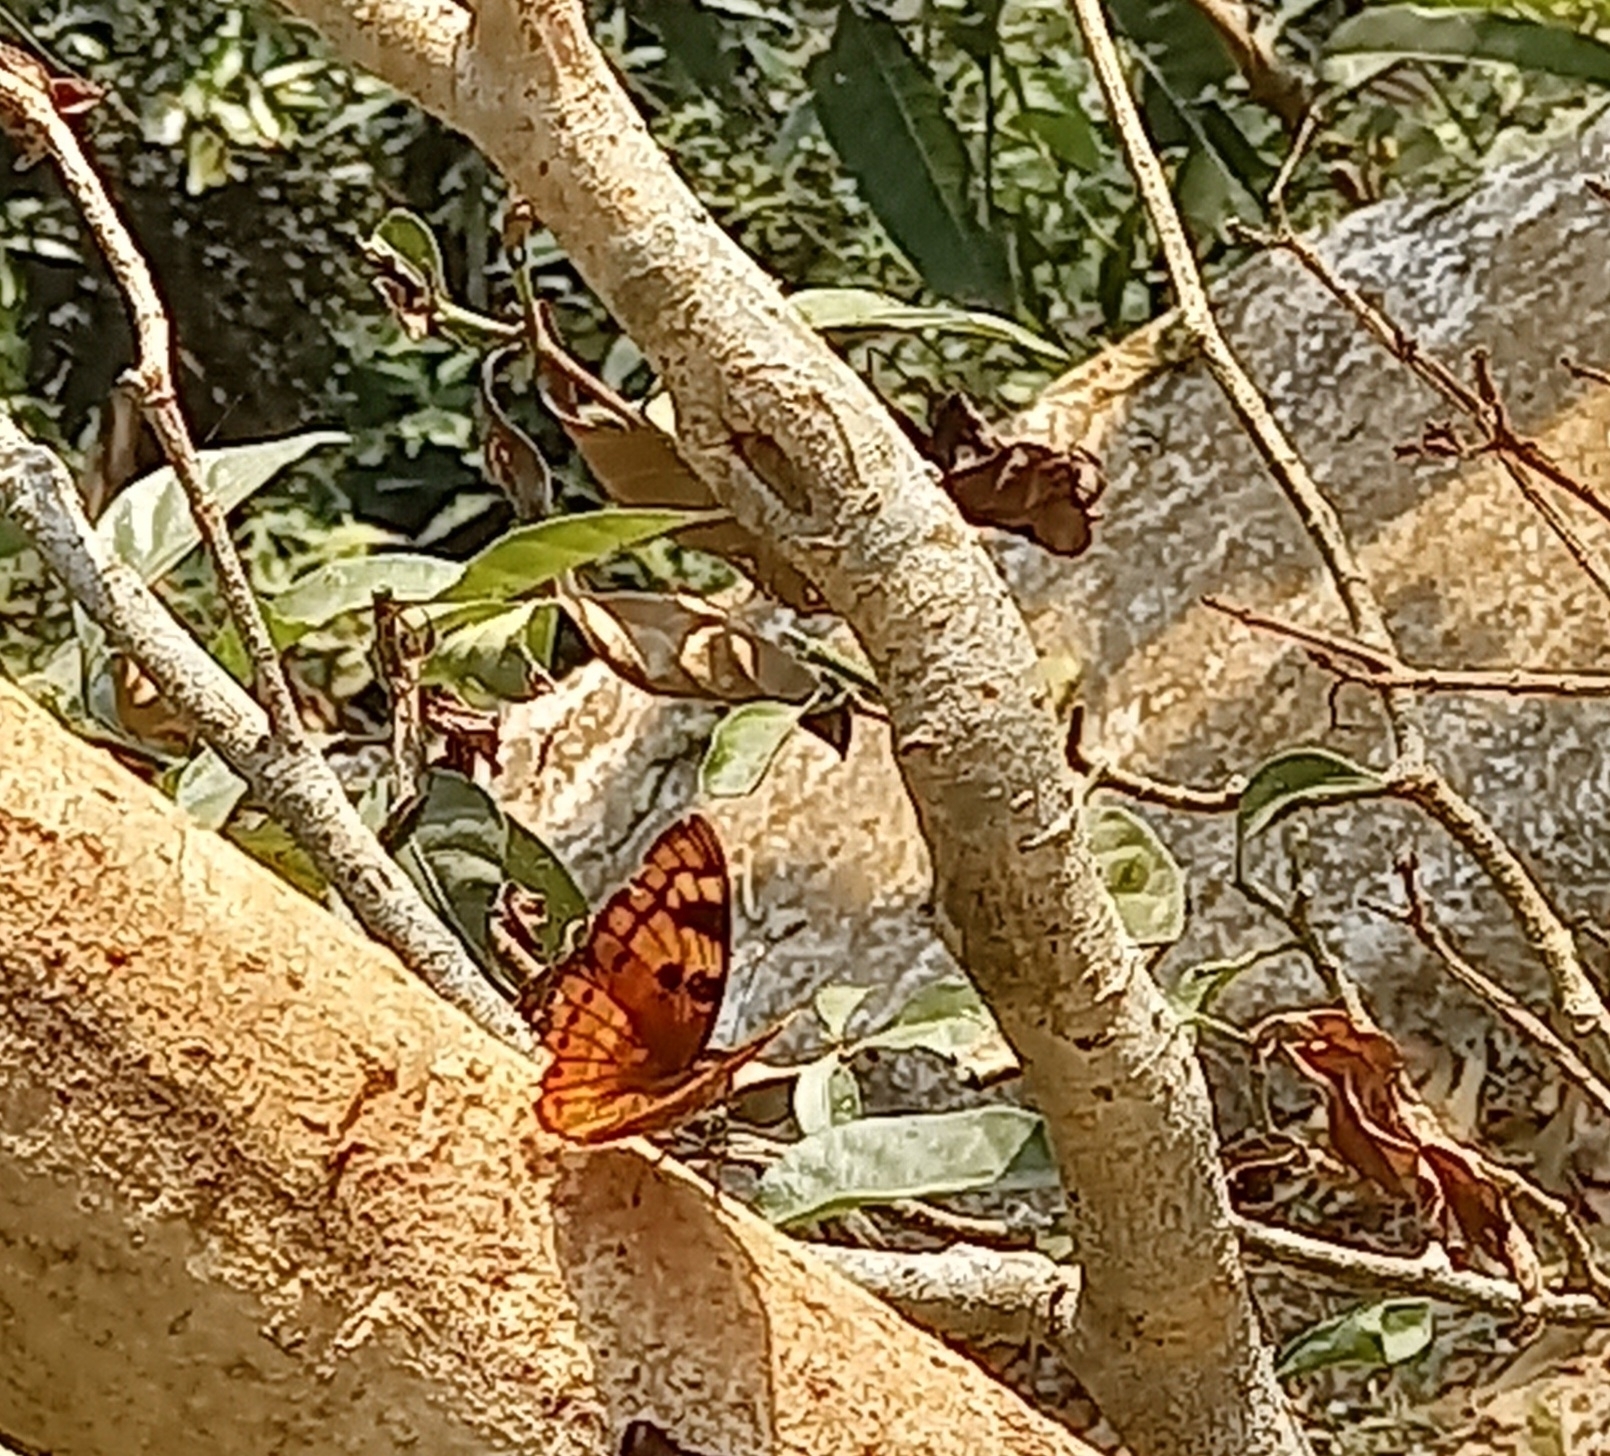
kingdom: Animalia
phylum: Arthropoda
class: Insecta
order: Lepidoptera
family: Nymphalidae
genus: Euthalia
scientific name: Euthalia nais
